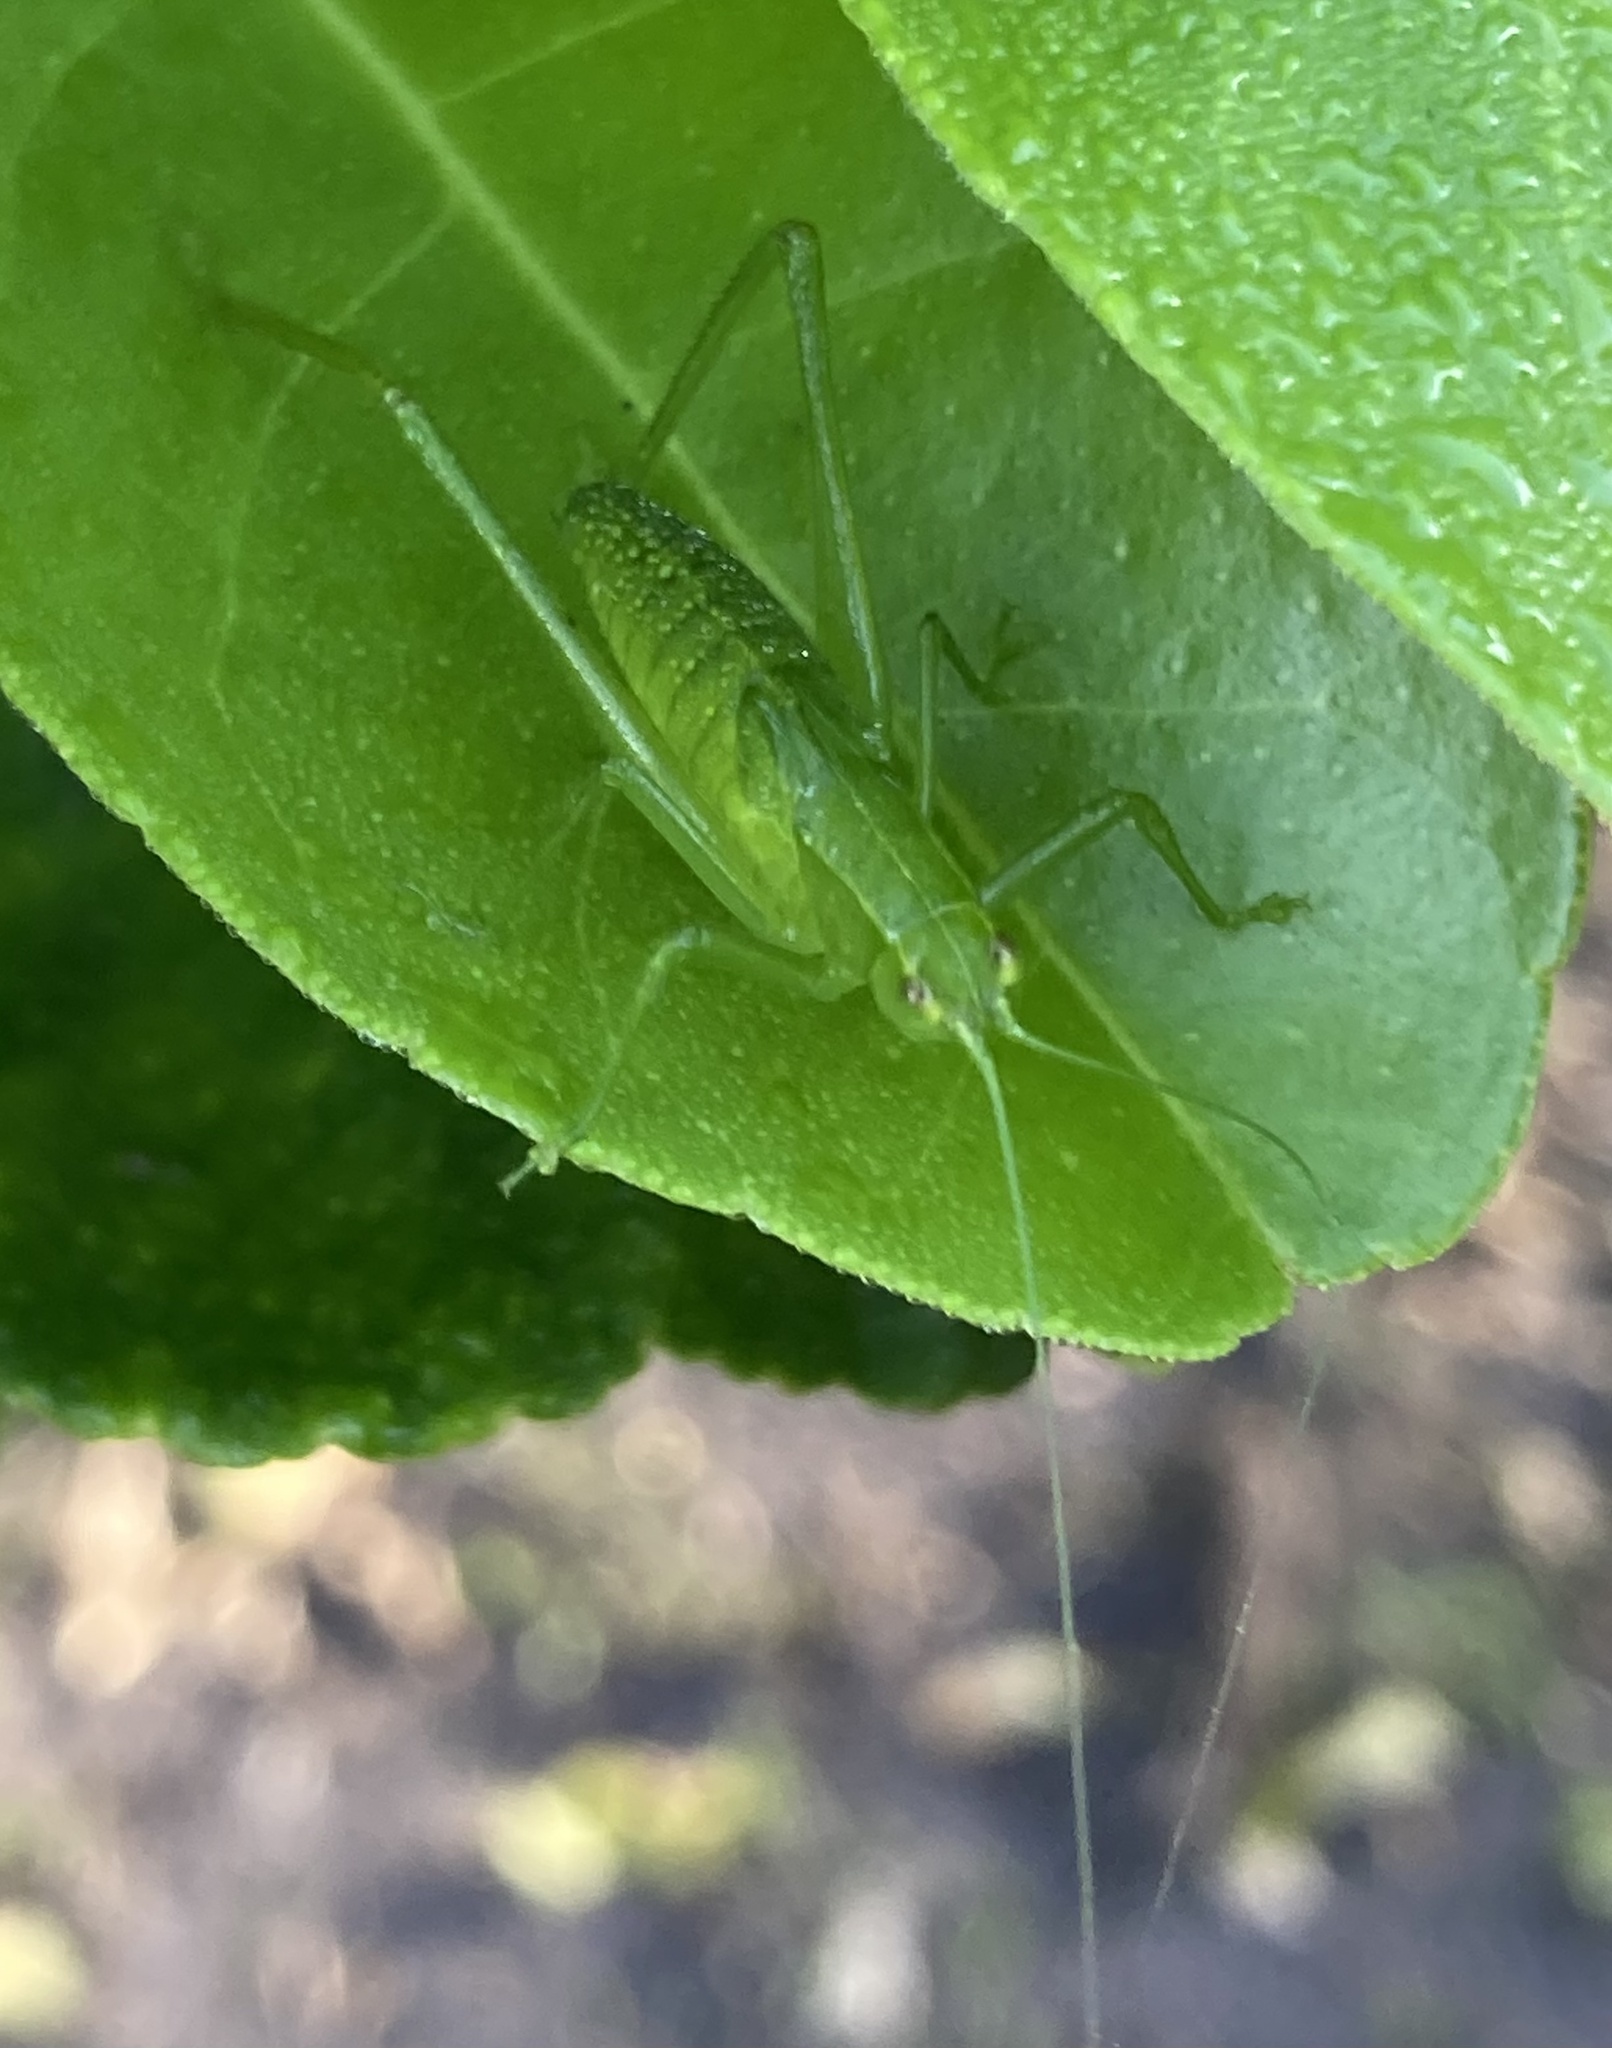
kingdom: Animalia
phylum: Arthropoda
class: Insecta
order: Orthoptera
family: Tettigoniidae
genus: Turpilia
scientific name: Turpilia rostrata
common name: Narrow-beaked katydid
